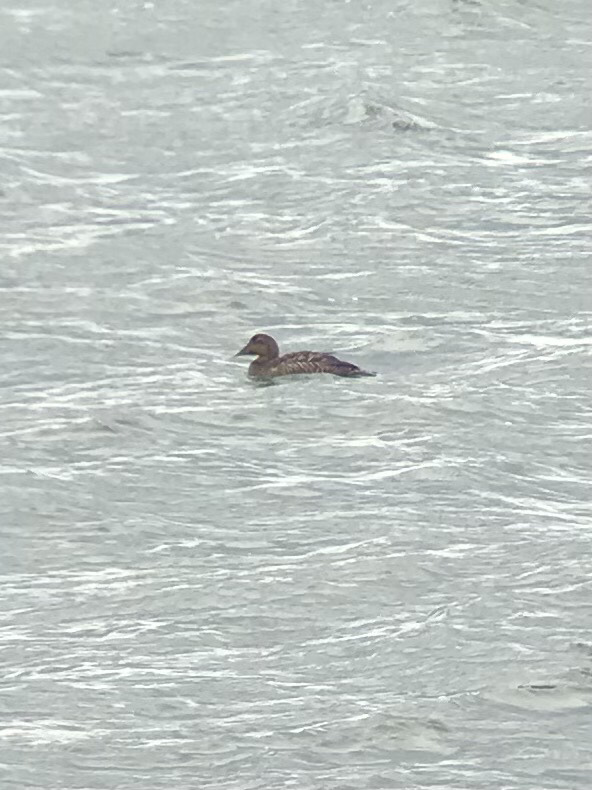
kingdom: Animalia
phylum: Chordata
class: Aves
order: Anseriformes
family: Anatidae
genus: Somateria
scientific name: Somateria mollissima
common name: Common eider
